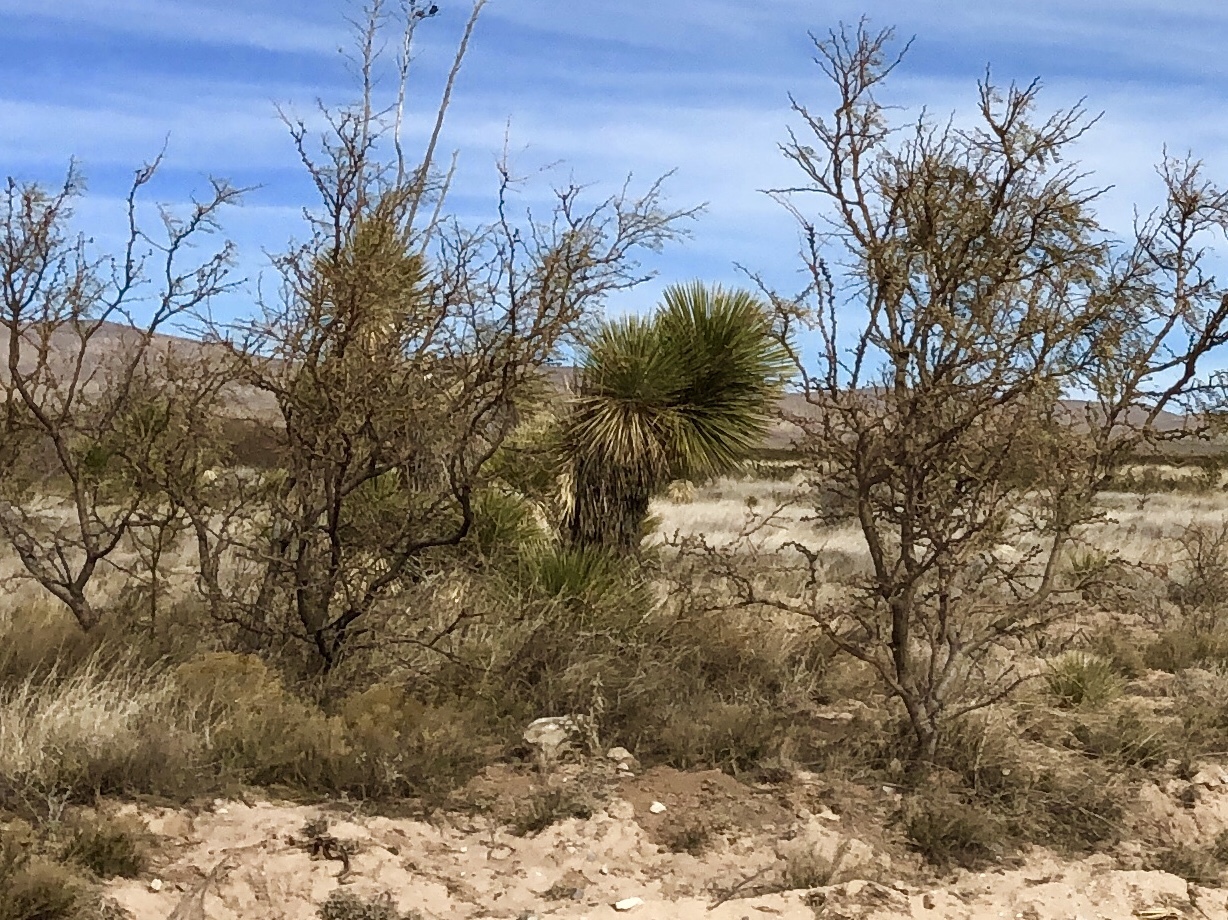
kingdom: Plantae
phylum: Tracheophyta
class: Liliopsida
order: Asparagales
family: Asparagaceae
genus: Yucca
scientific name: Yucca elata
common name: Palmella
